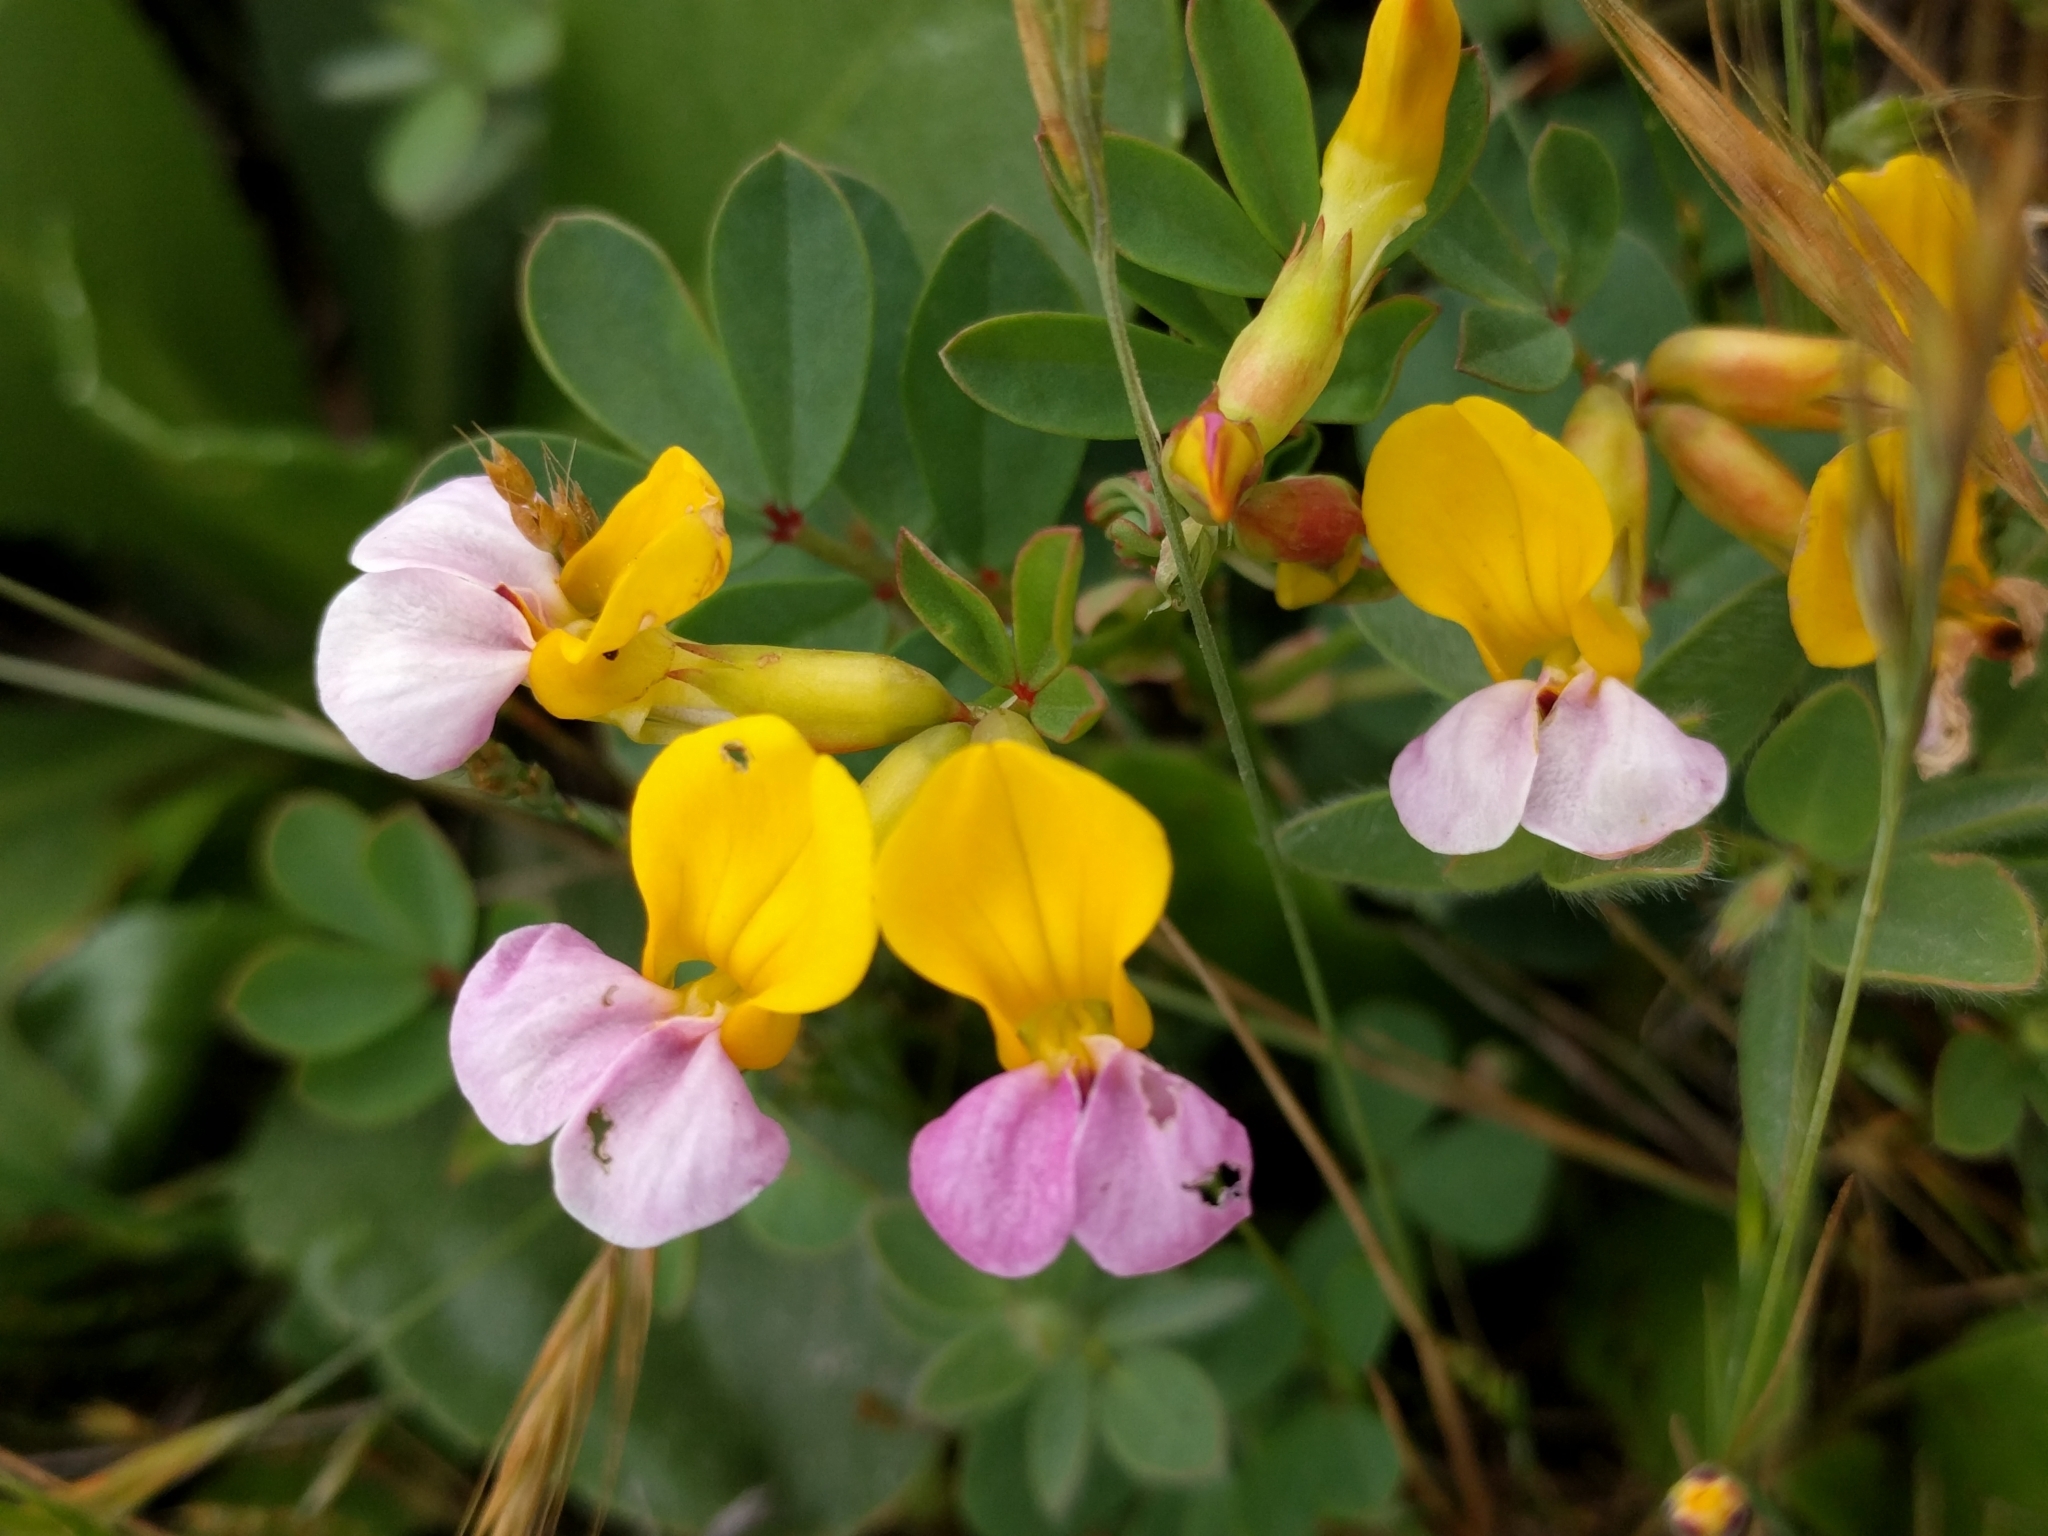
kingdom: Plantae
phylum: Tracheophyta
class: Magnoliopsida
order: Fabales
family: Fabaceae
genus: Hosackia
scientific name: Hosackia gracilis
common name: Seaside bird's-foot lotus
